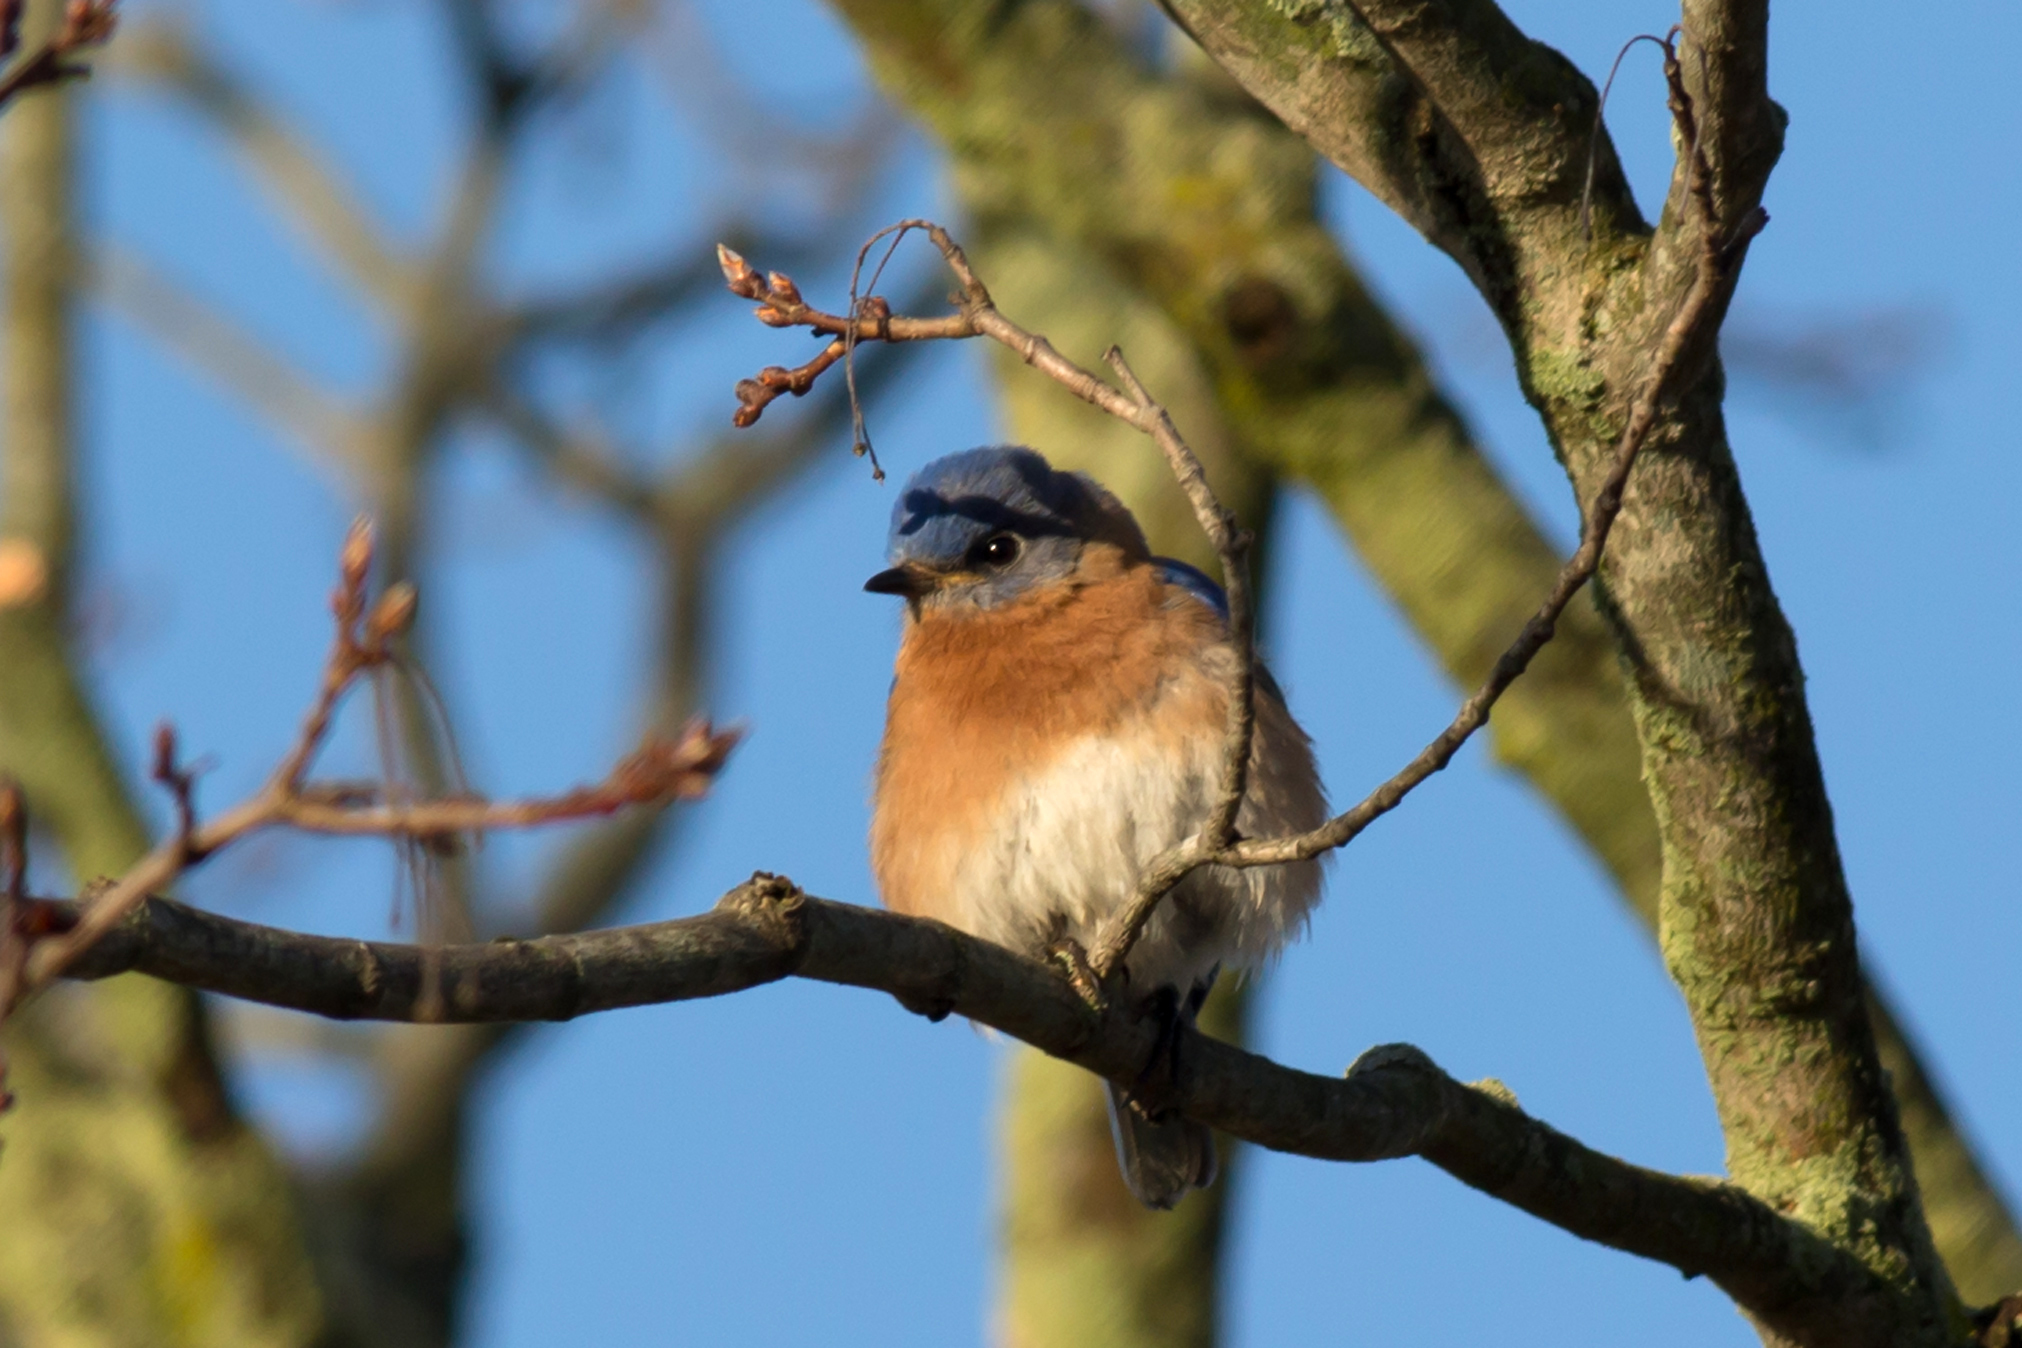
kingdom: Animalia
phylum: Chordata
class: Aves
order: Passeriformes
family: Turdidae
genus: Sialia
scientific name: Sialia sialis
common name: Eastern bluebird
